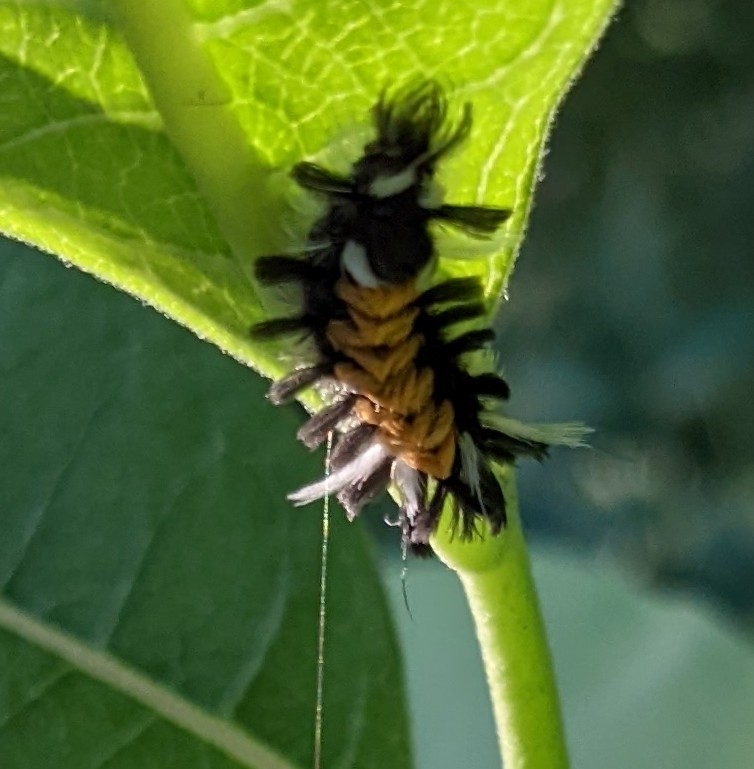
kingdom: Animalia
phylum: Arthropoda
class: Insecta
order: Lepidoptera
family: Erebidae
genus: Euchaetes
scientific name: Euchaetes egle
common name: Milkweed tussock moth
